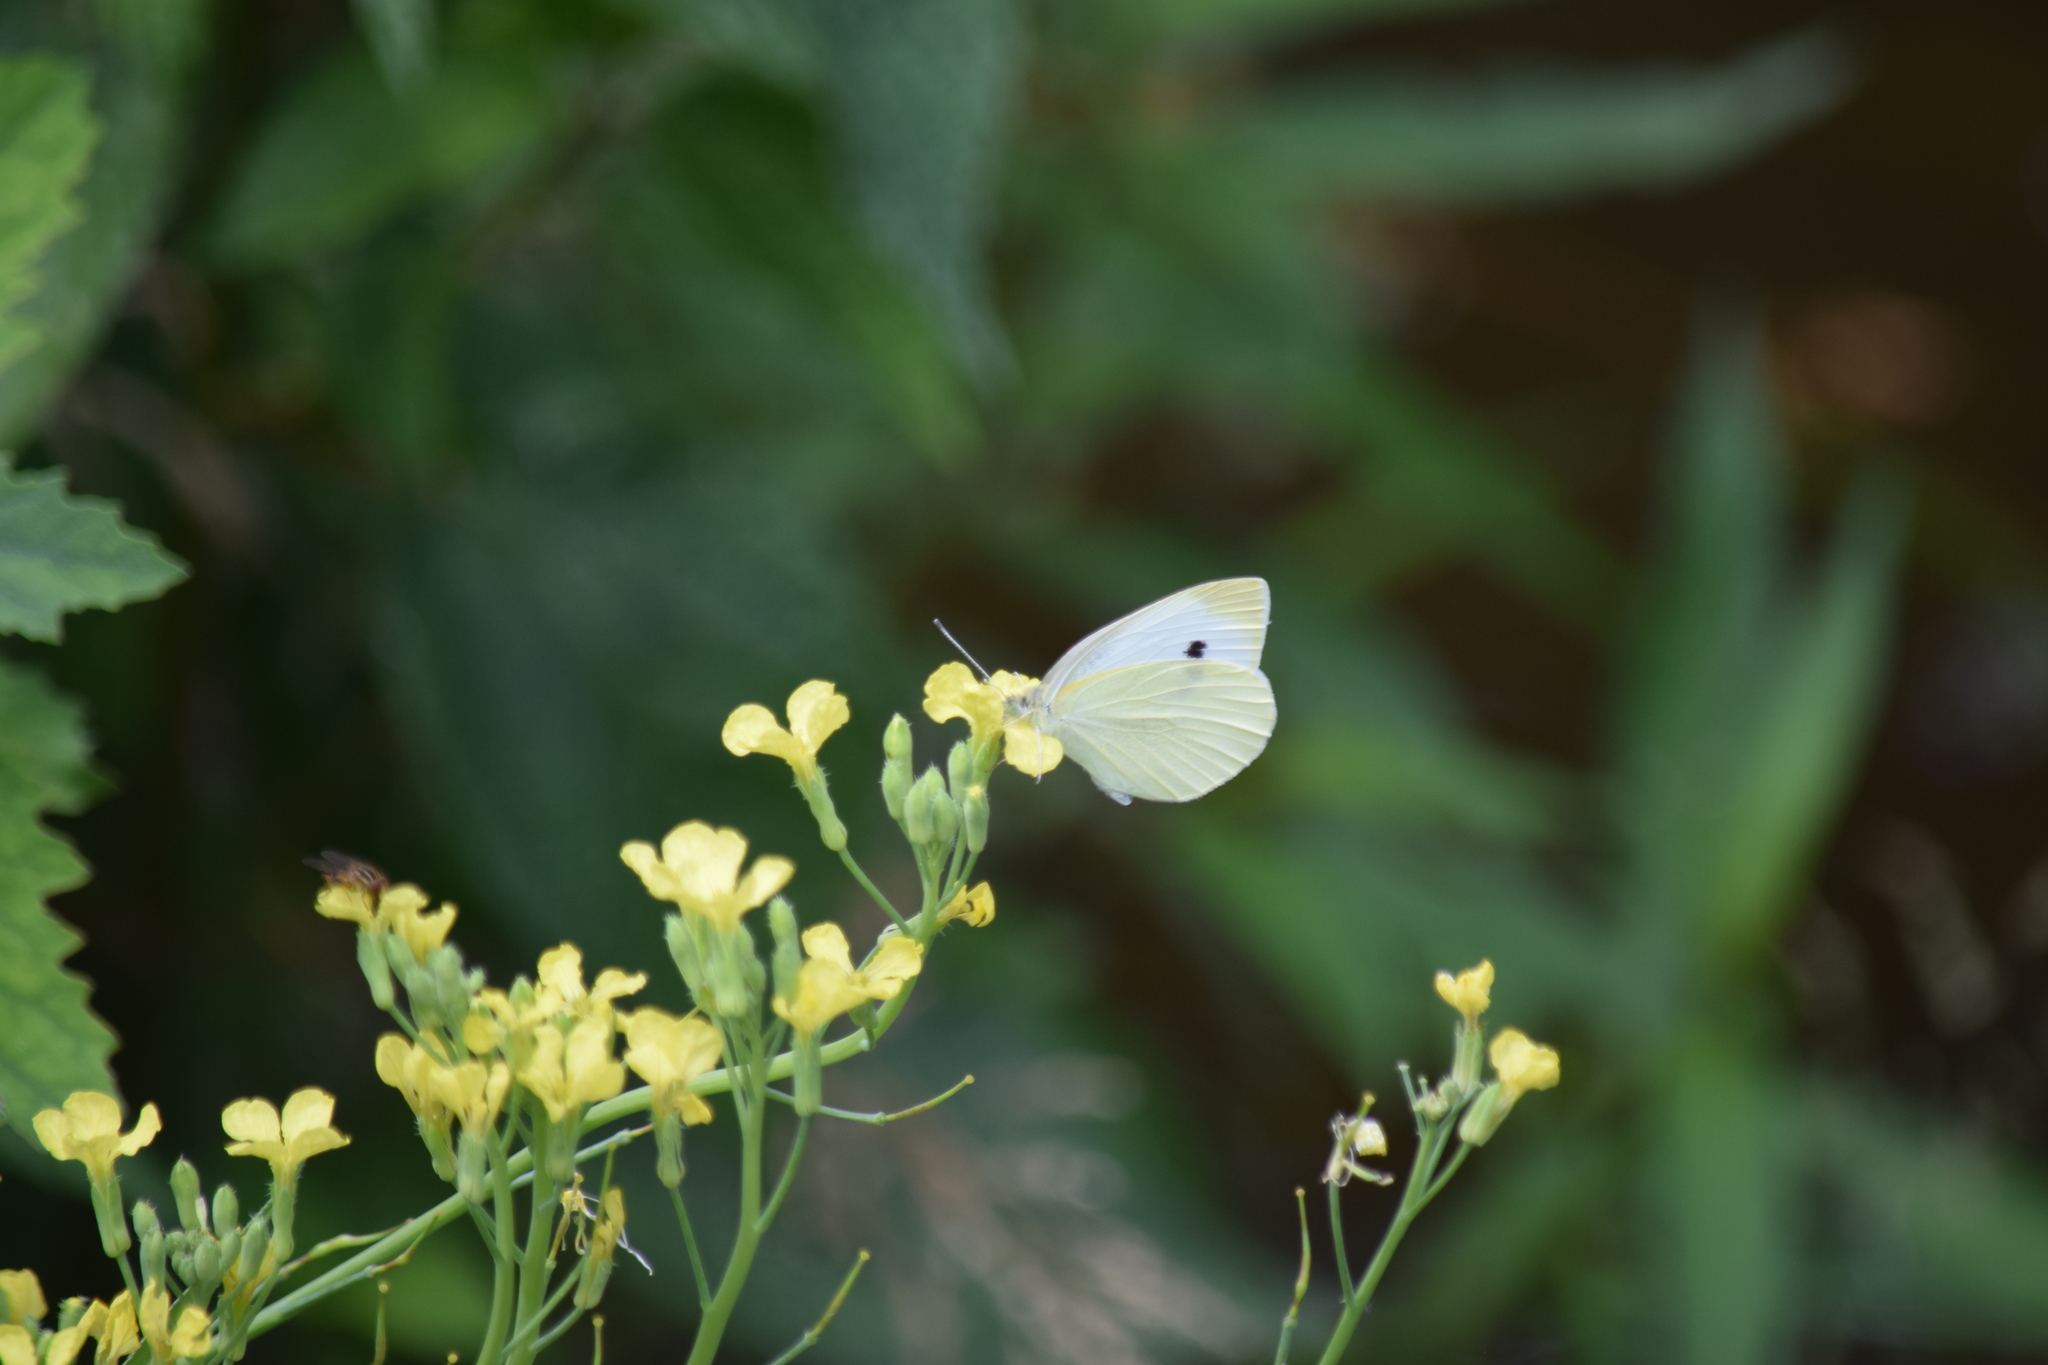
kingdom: Animalia
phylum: Arthropoda
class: Insecta
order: Lepidoptera
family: Pieridae
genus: Pieris
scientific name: Pieris rapae
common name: Small white
